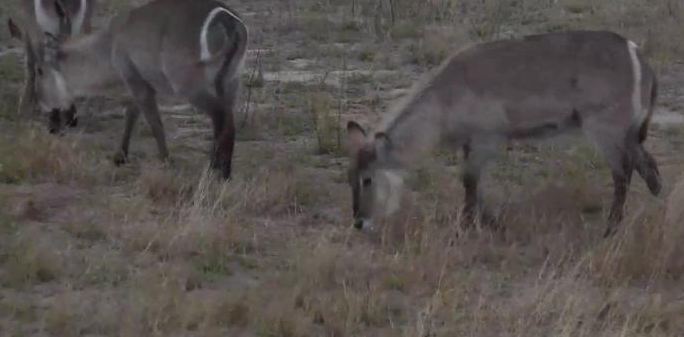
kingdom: Animalia
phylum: Chordata
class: Mammalia
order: Artiodactyla
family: Bovidae
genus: Kobus
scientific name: Kobus ellipsiprymnus
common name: Waterbuck
